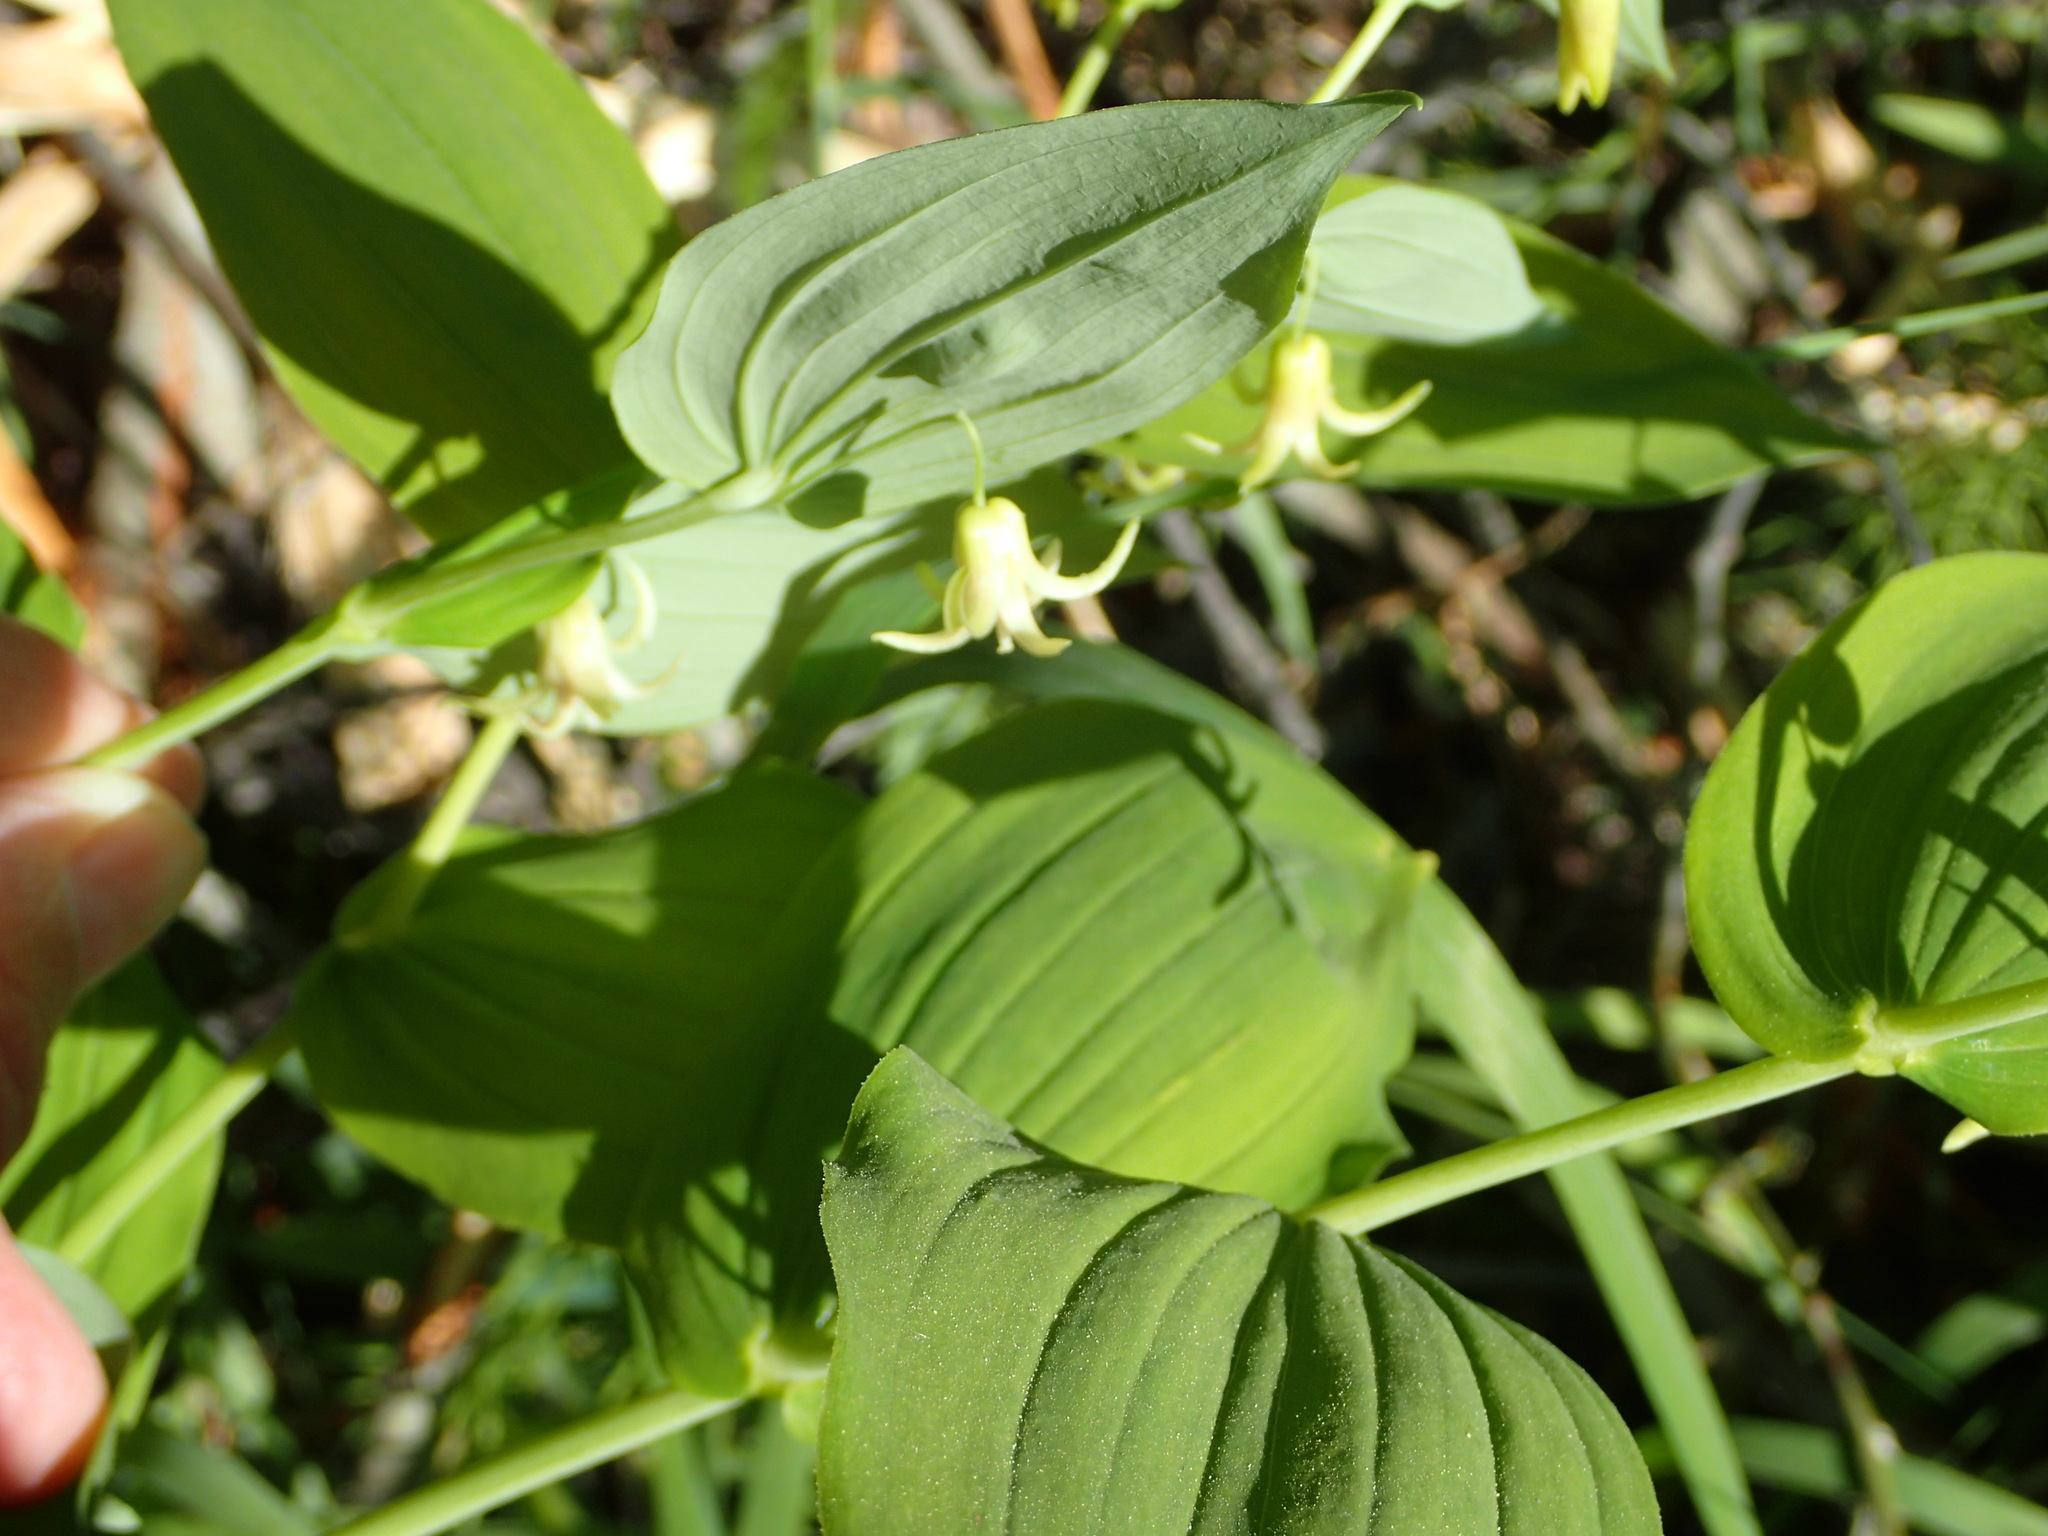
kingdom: Plantae
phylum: Tracheophyta
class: Liliopsida
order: Liliales
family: Liliaceae
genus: Streptopus
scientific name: Streptopus amplexifolius
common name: Clasp twisted stalk
